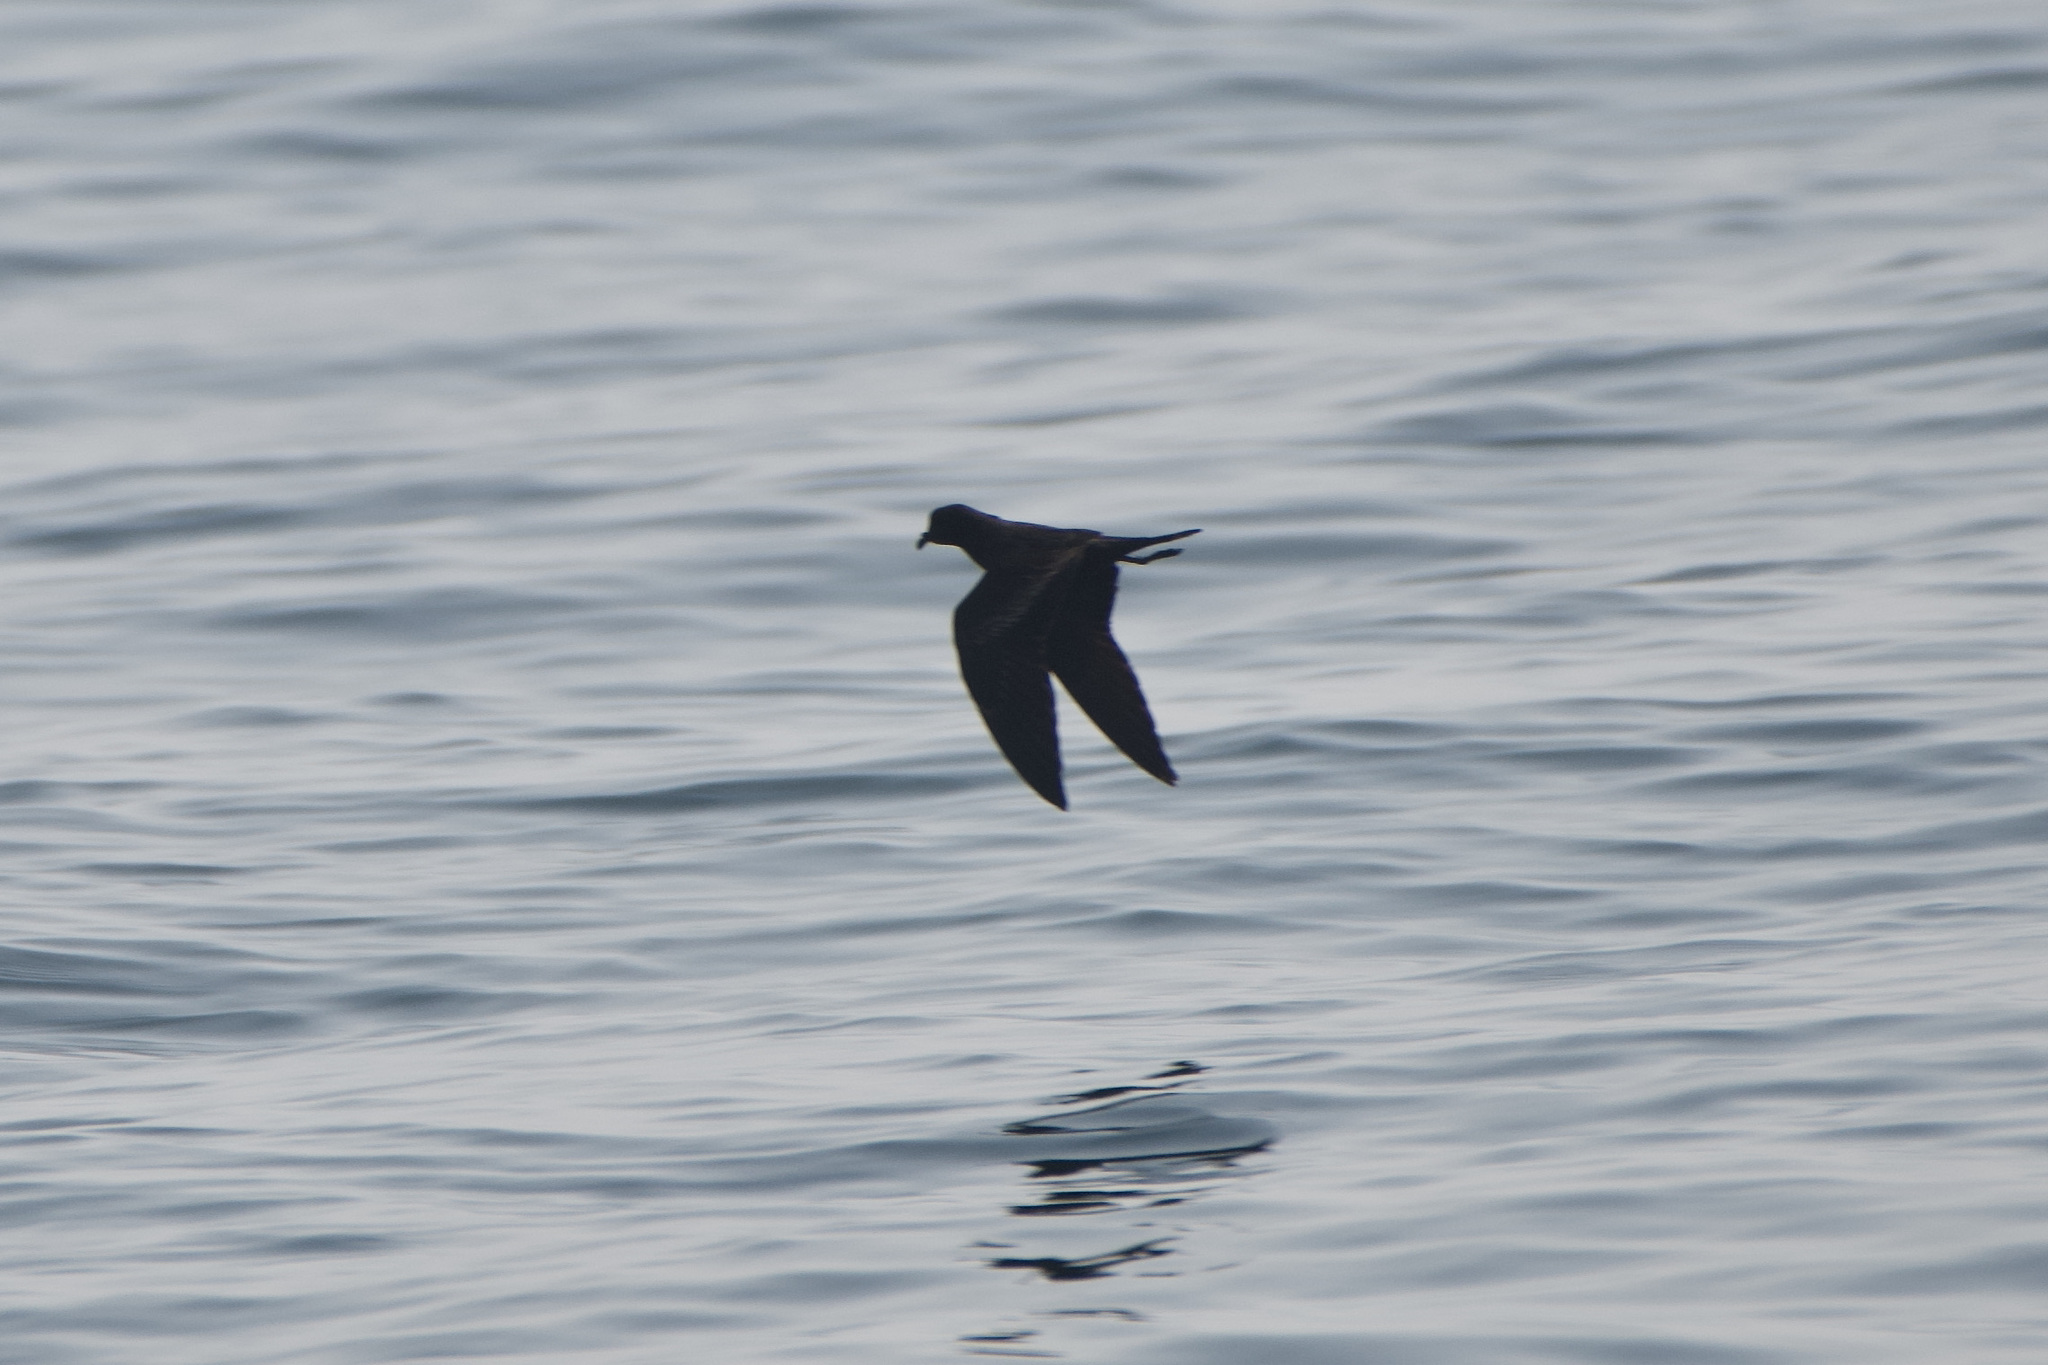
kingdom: Animalia
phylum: Chordata
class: Aves
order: Procellariiformes
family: Hydrobatidae
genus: Hydrobates
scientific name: Hydrobates melania
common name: Black storm petrel
